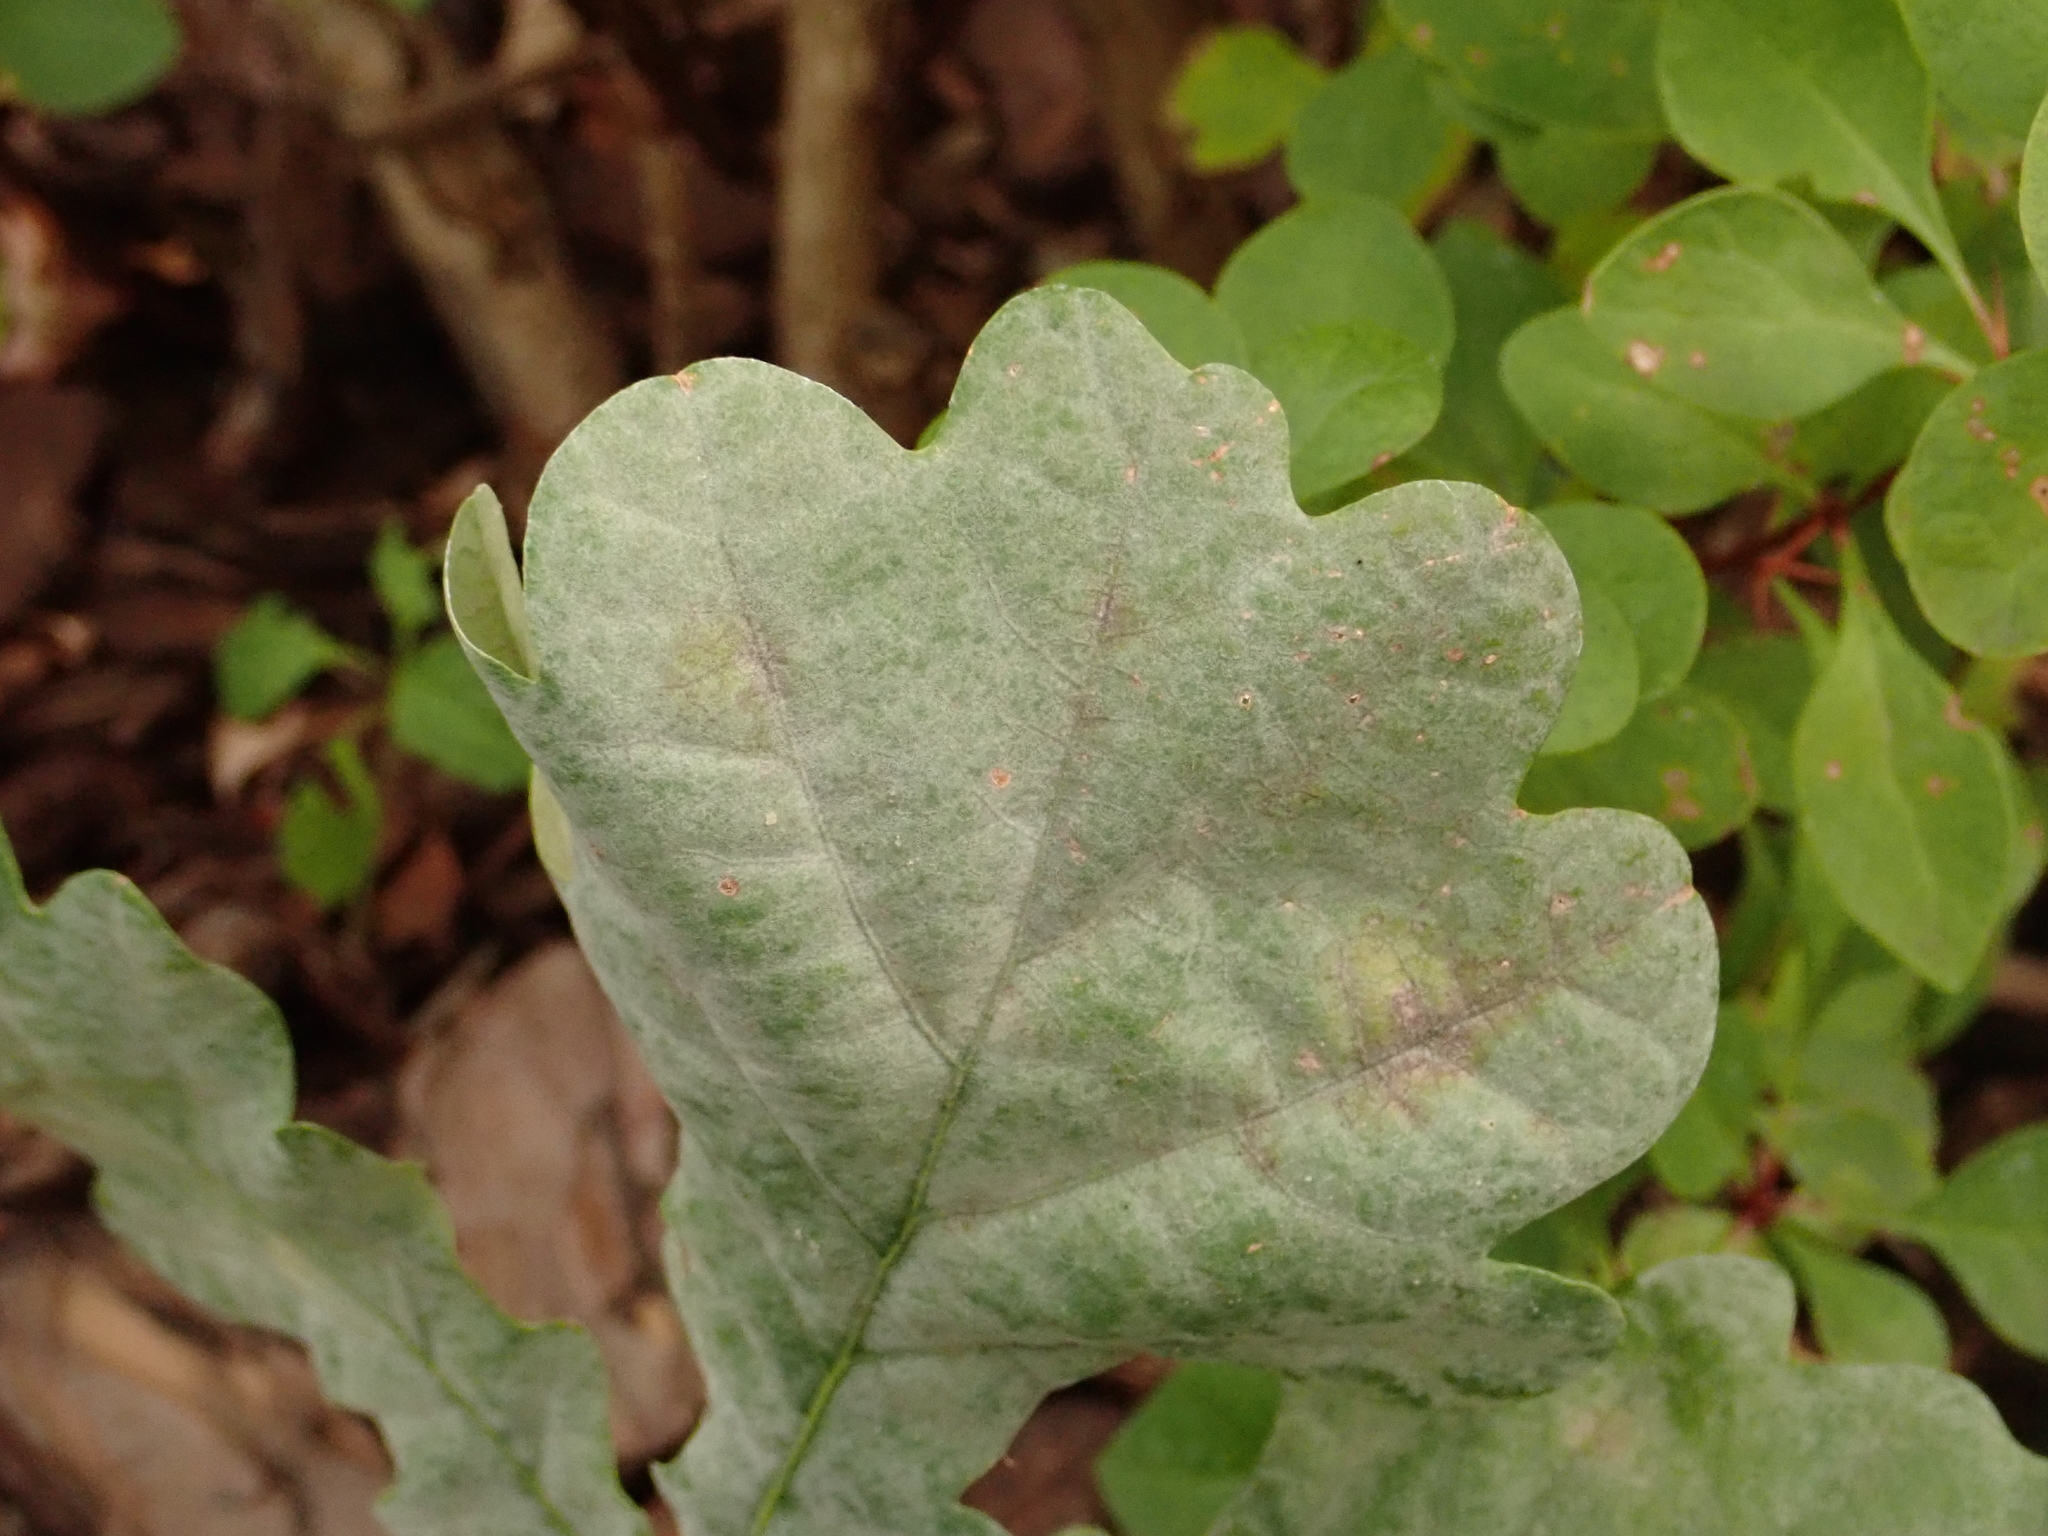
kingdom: Fungi
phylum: Ascomycota
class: Leotiomycetes
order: Helotiales
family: Erysiphaceae
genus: Erysiphe
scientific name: Erysiphe
